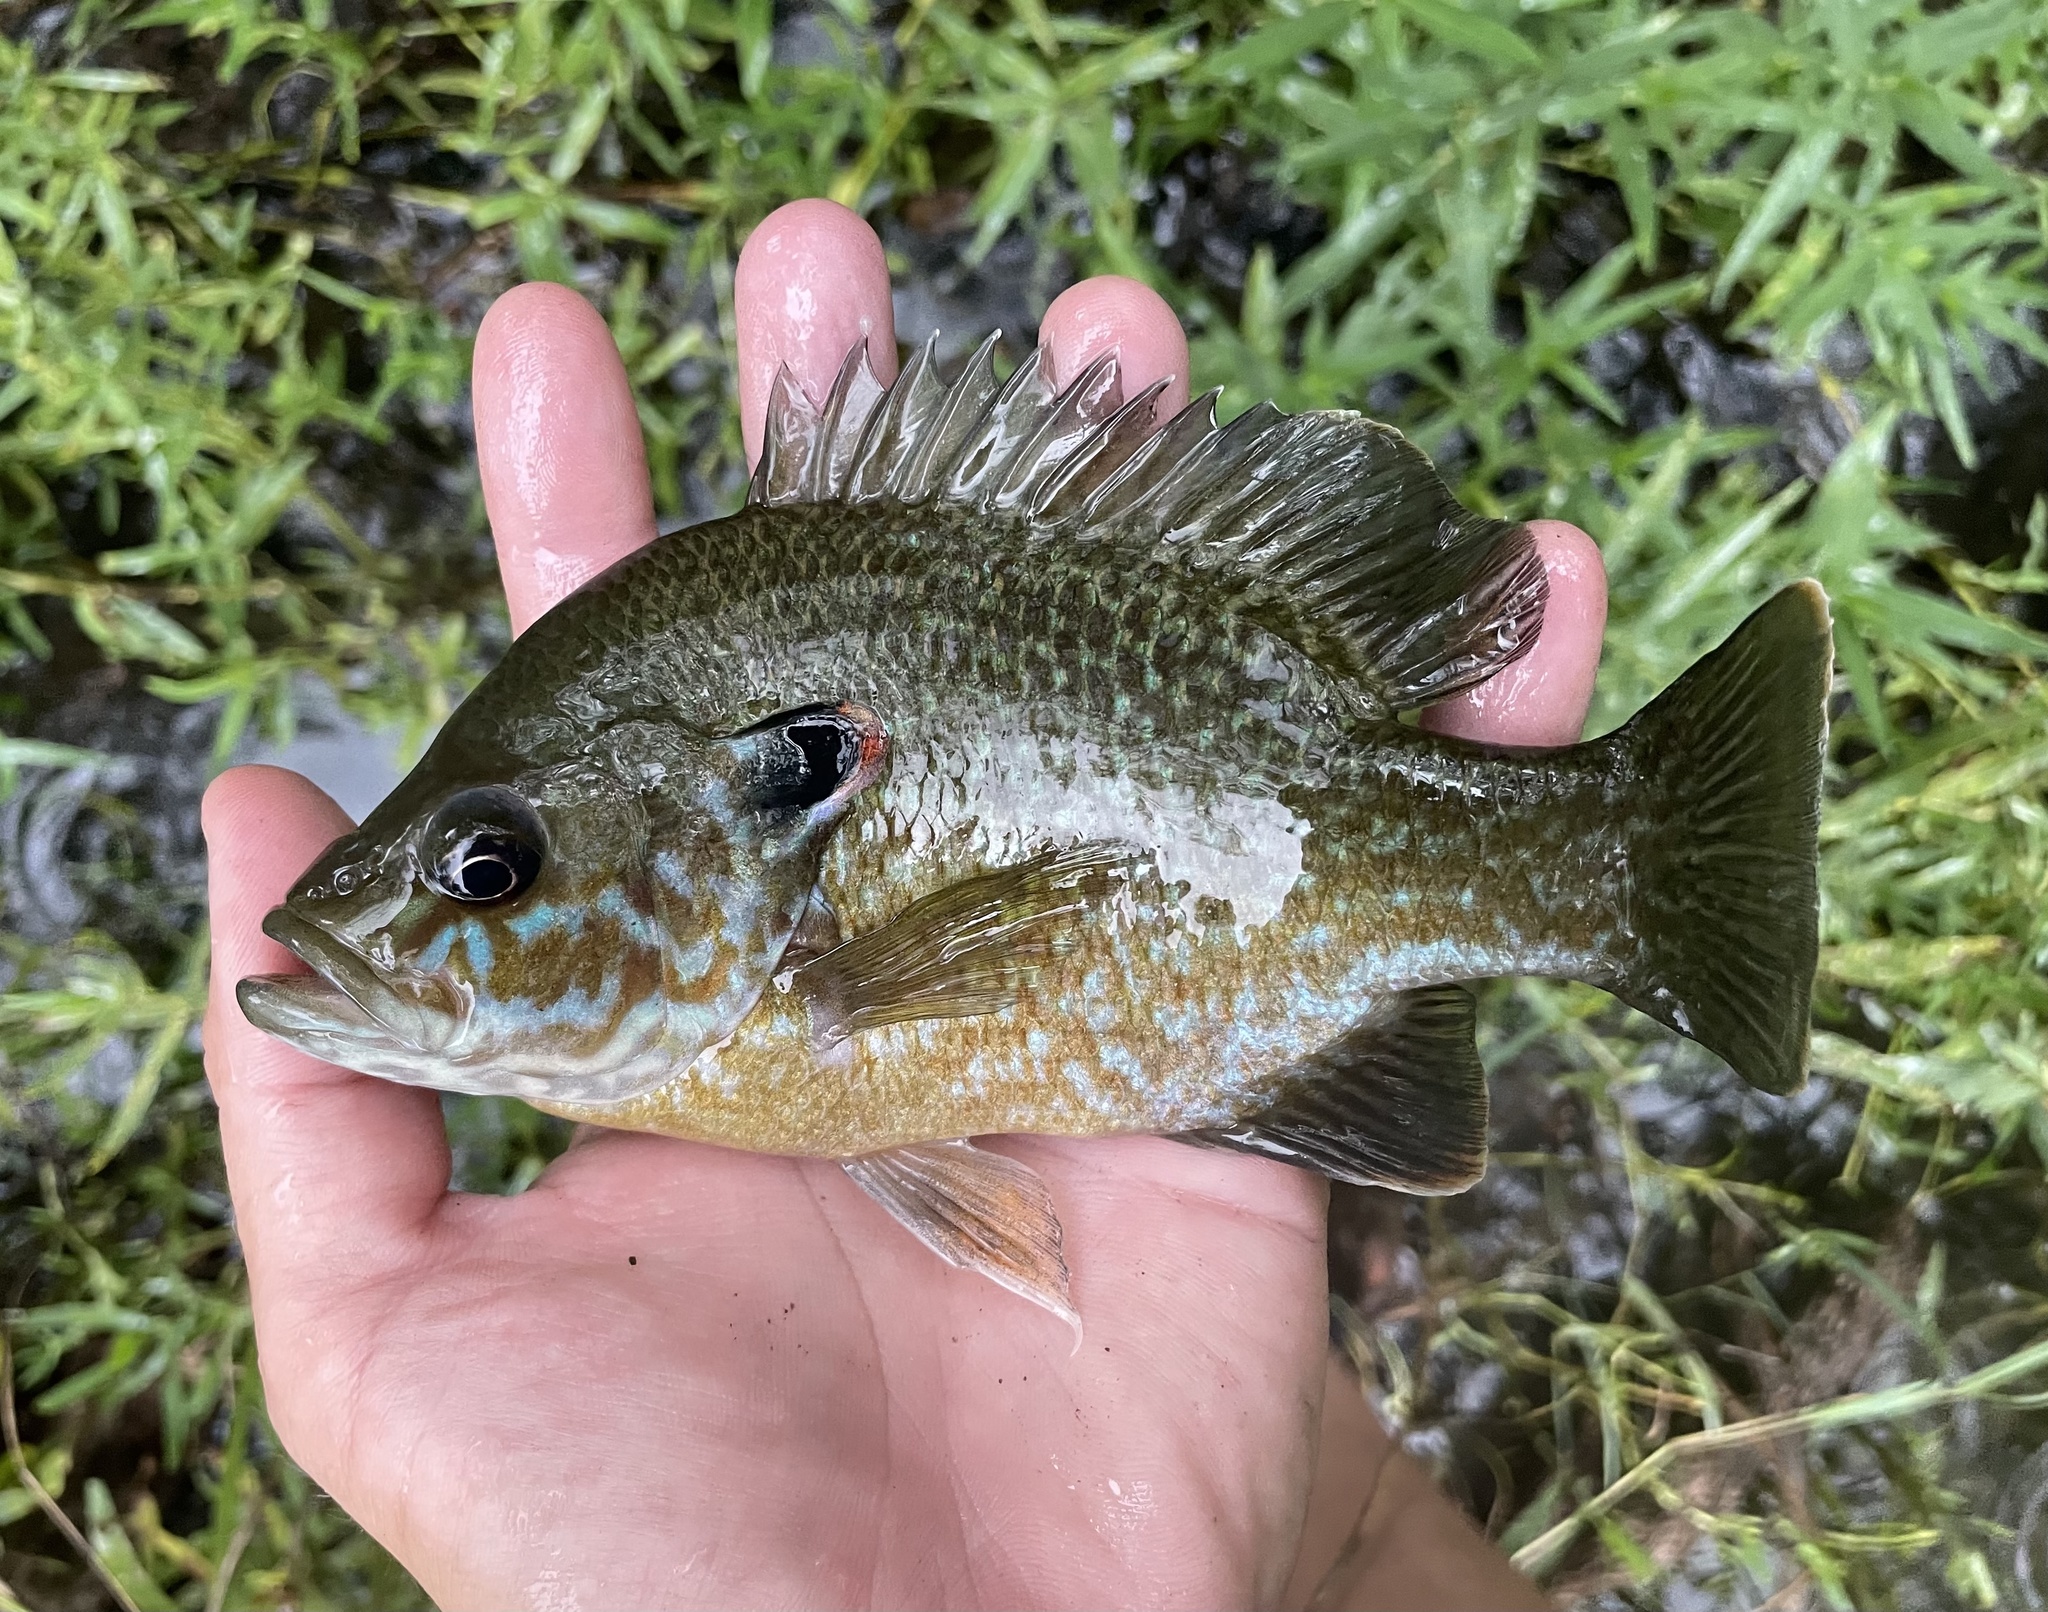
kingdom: Animalia
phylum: Chordata
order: Perciformes
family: Centrarchidae
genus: Lepomis
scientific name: Lepomis
